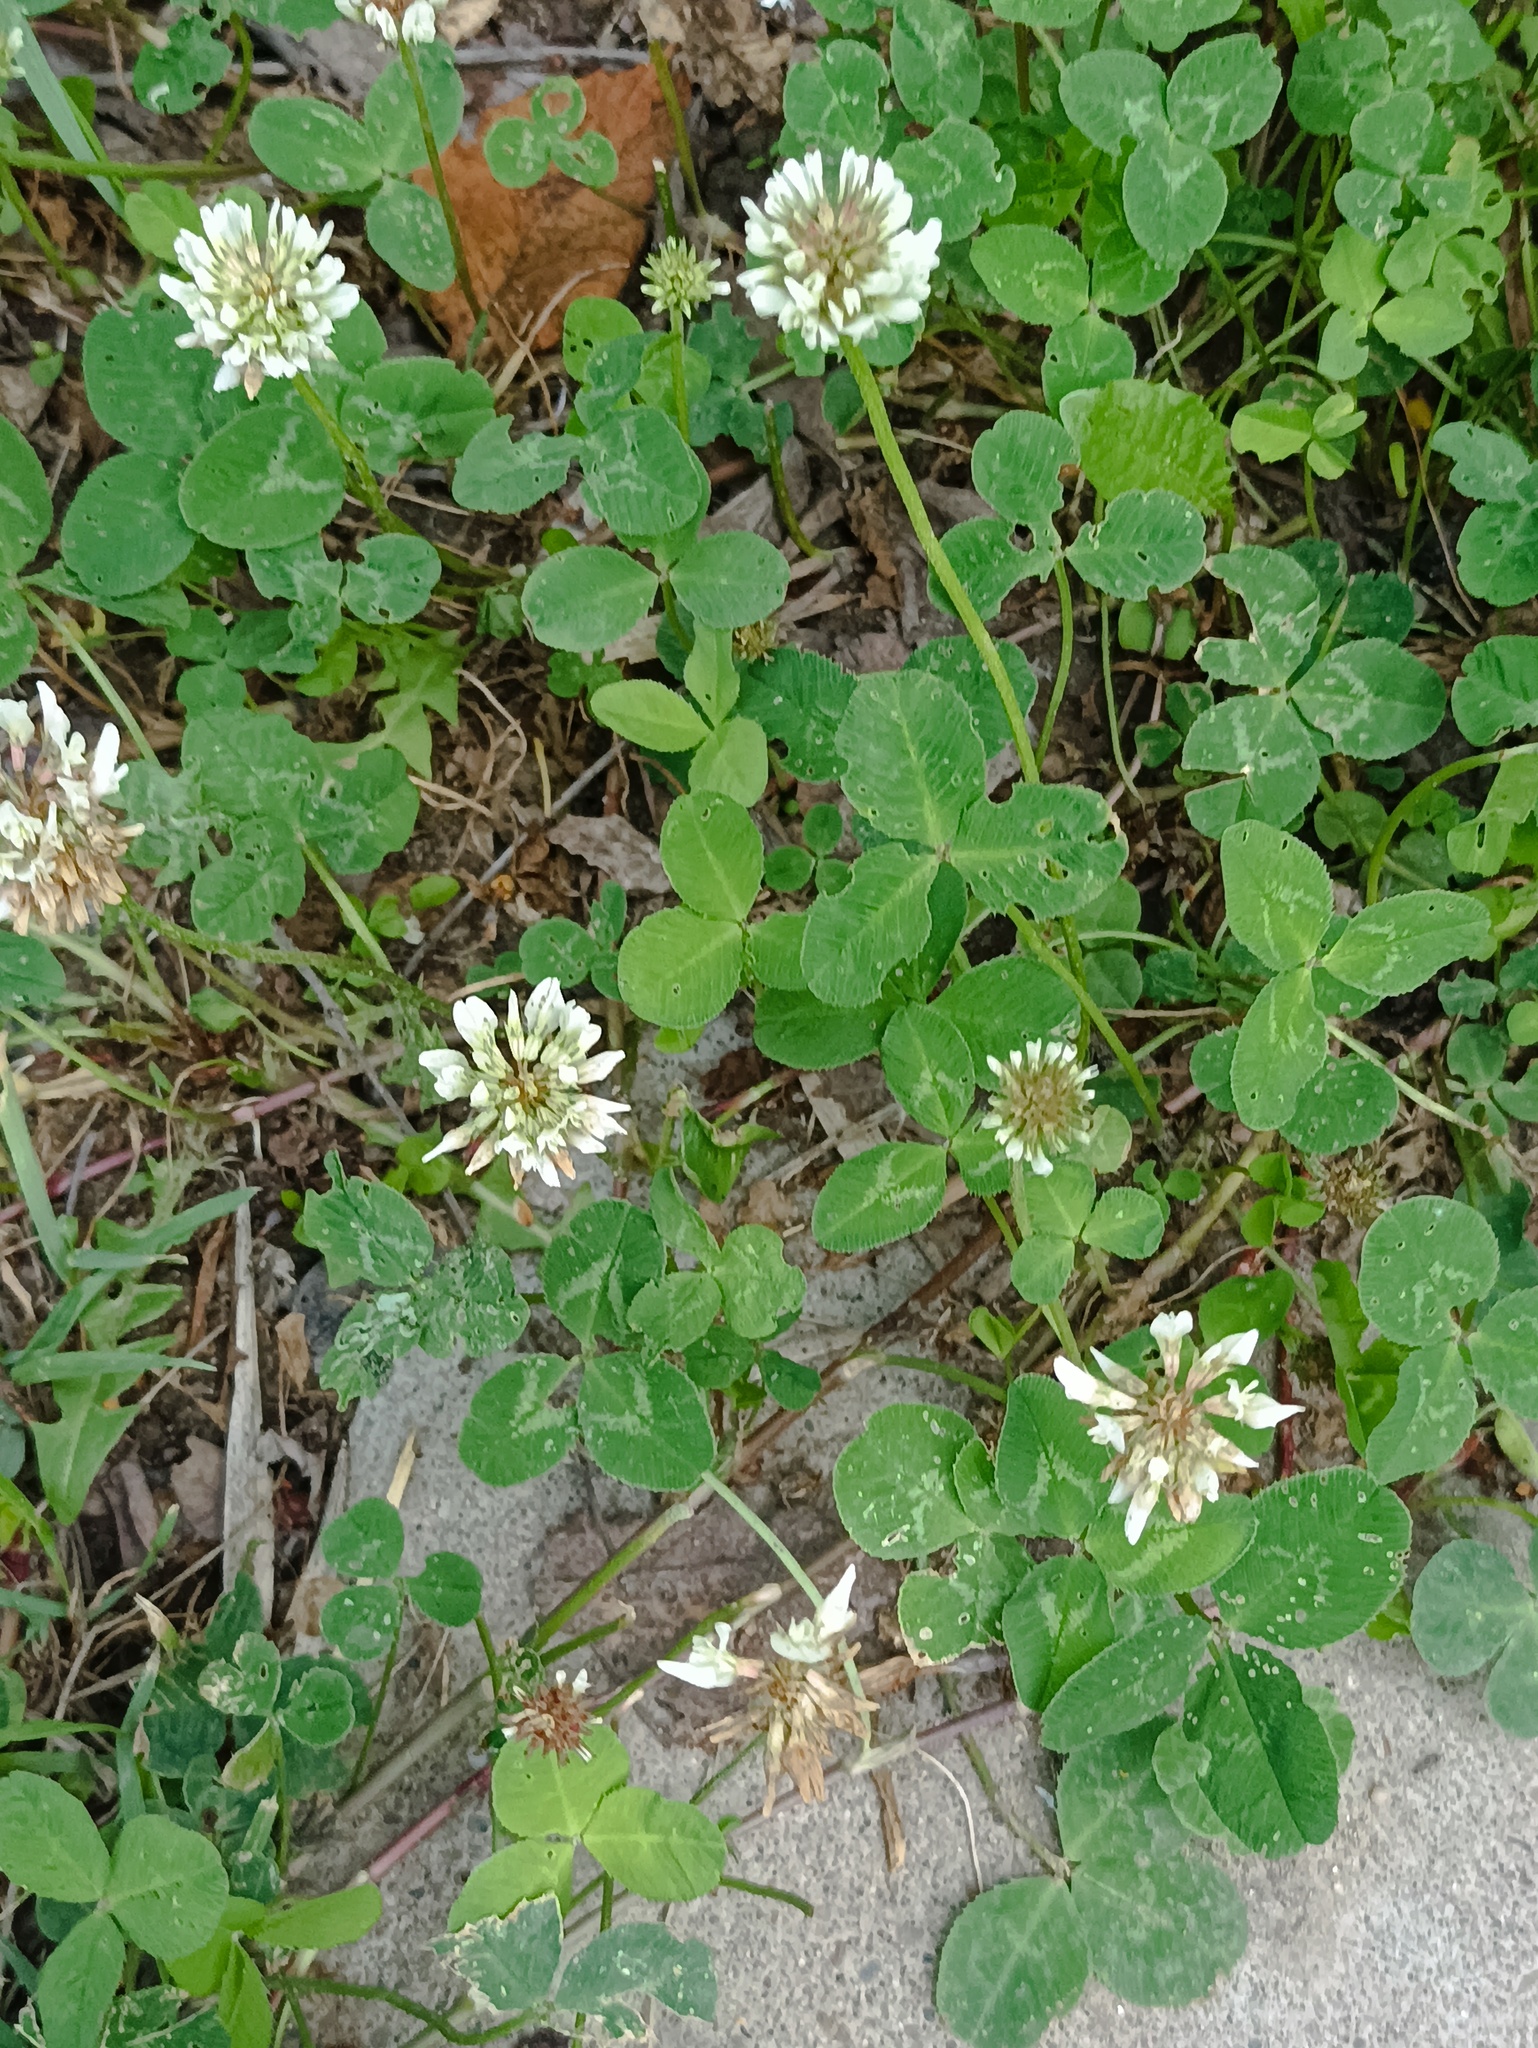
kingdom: Plantae
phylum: Tracheophyta
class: Magnoliopsida
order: Fabales
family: Fabaceae
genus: Trifolium
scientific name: Trifolium repens
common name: White clover
